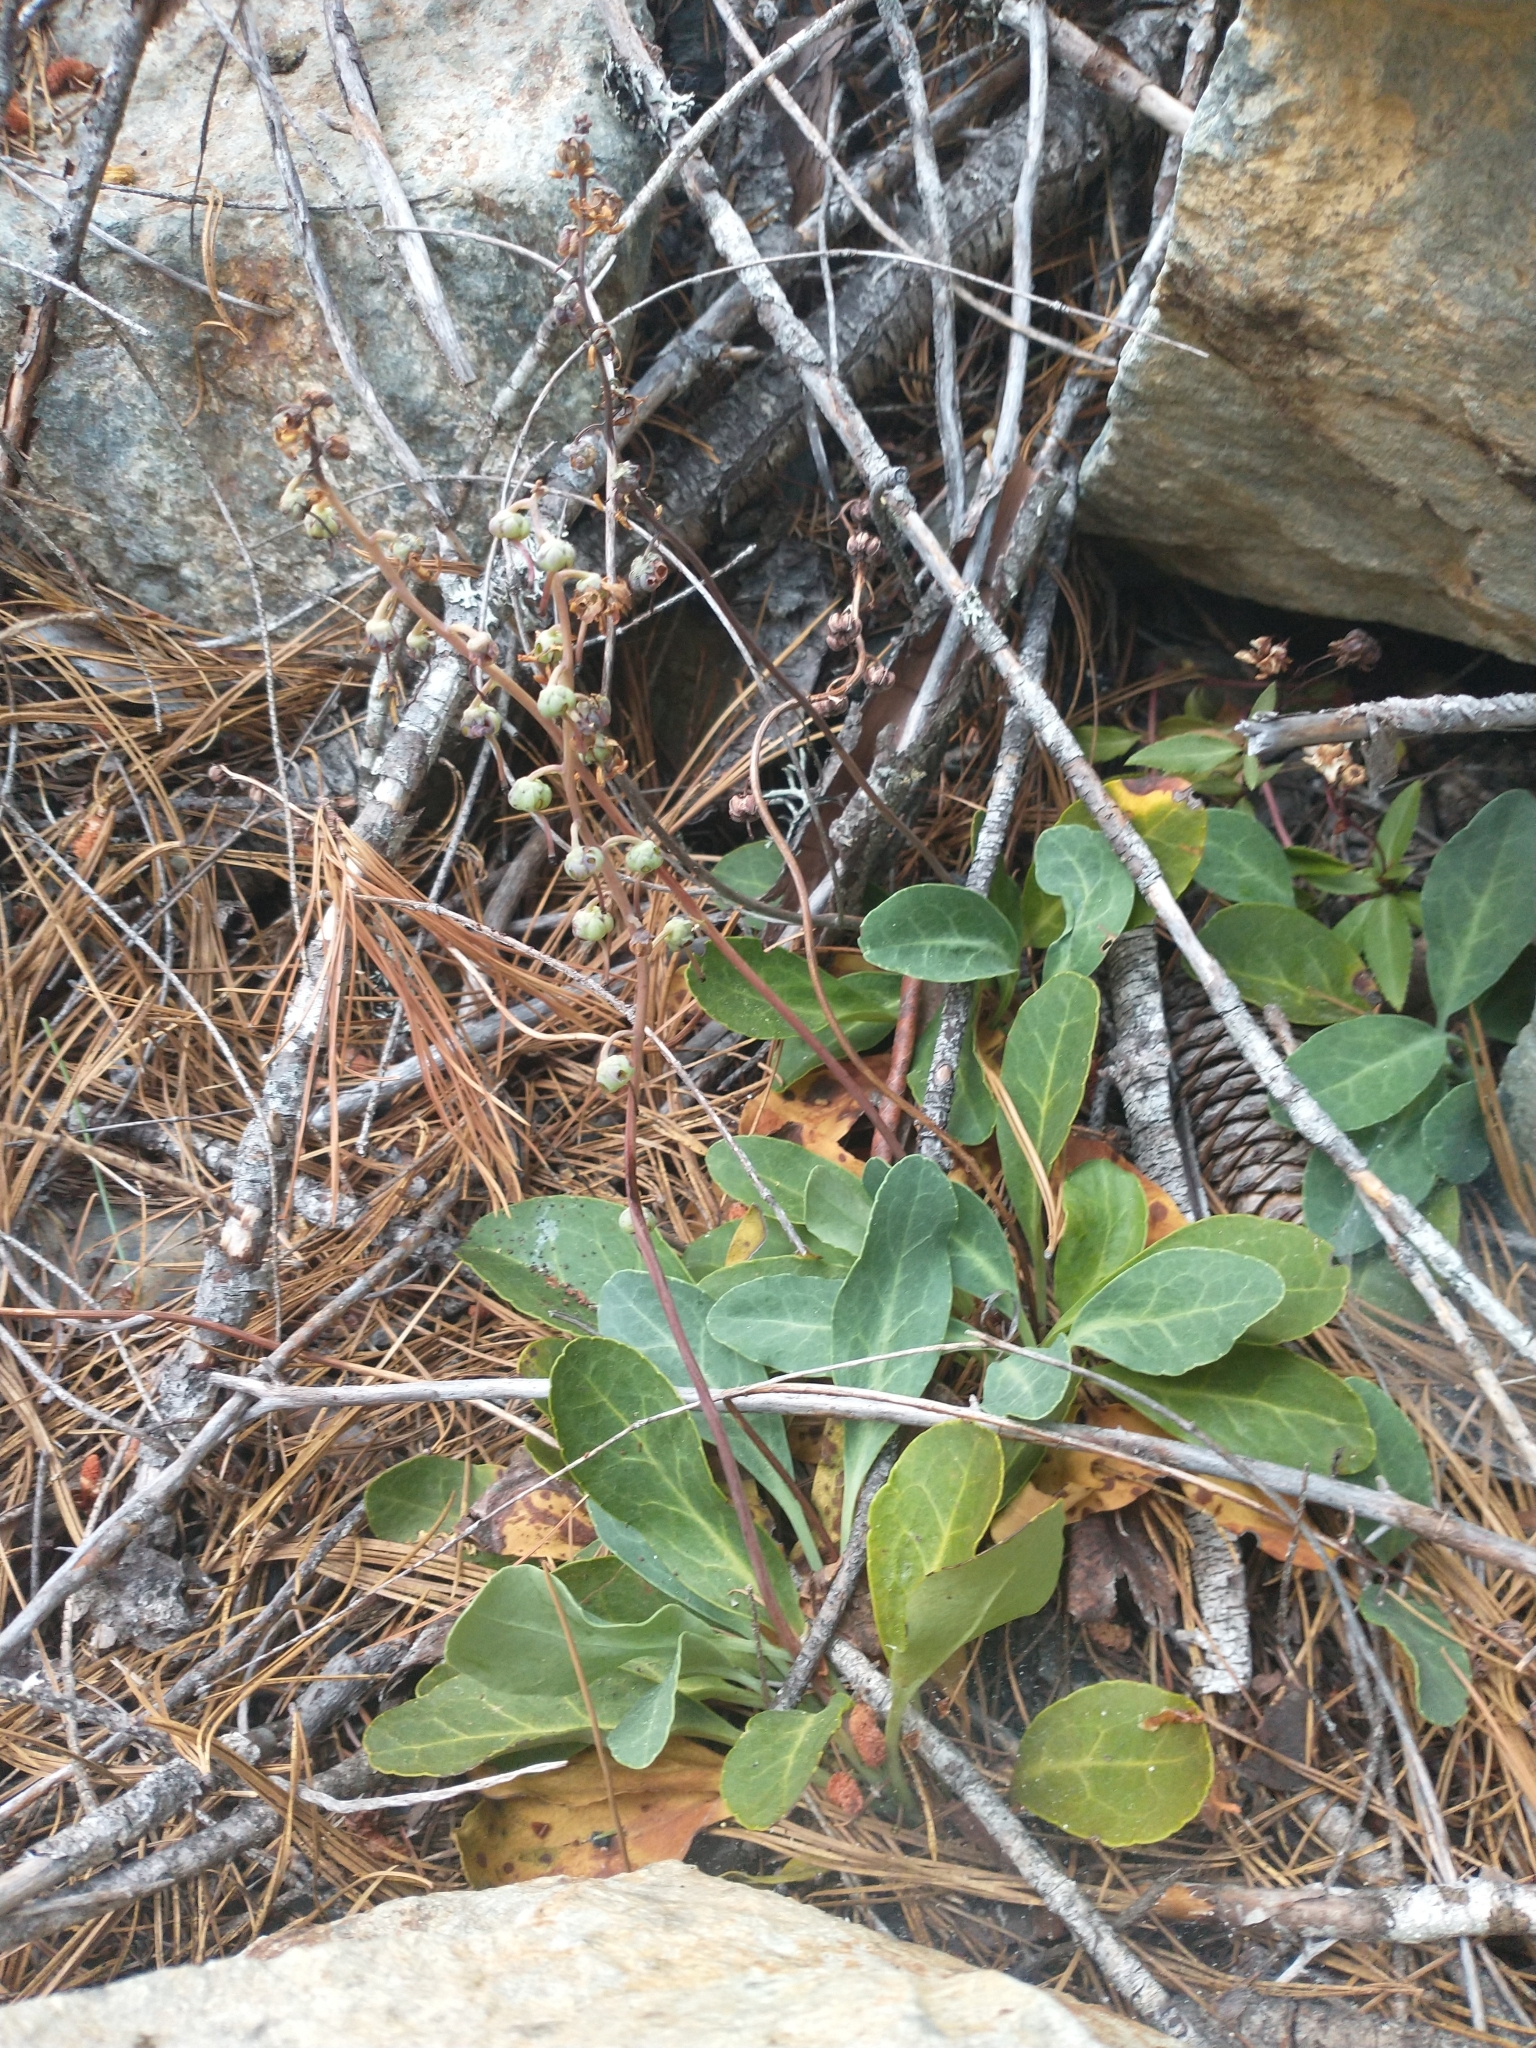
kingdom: Plantae
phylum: Tracheophyta
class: Magnoliopsida
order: Ericales
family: Ericaceae
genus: Pyrola
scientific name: Pyrola dentata
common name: Tooth-leaved wintergreen
